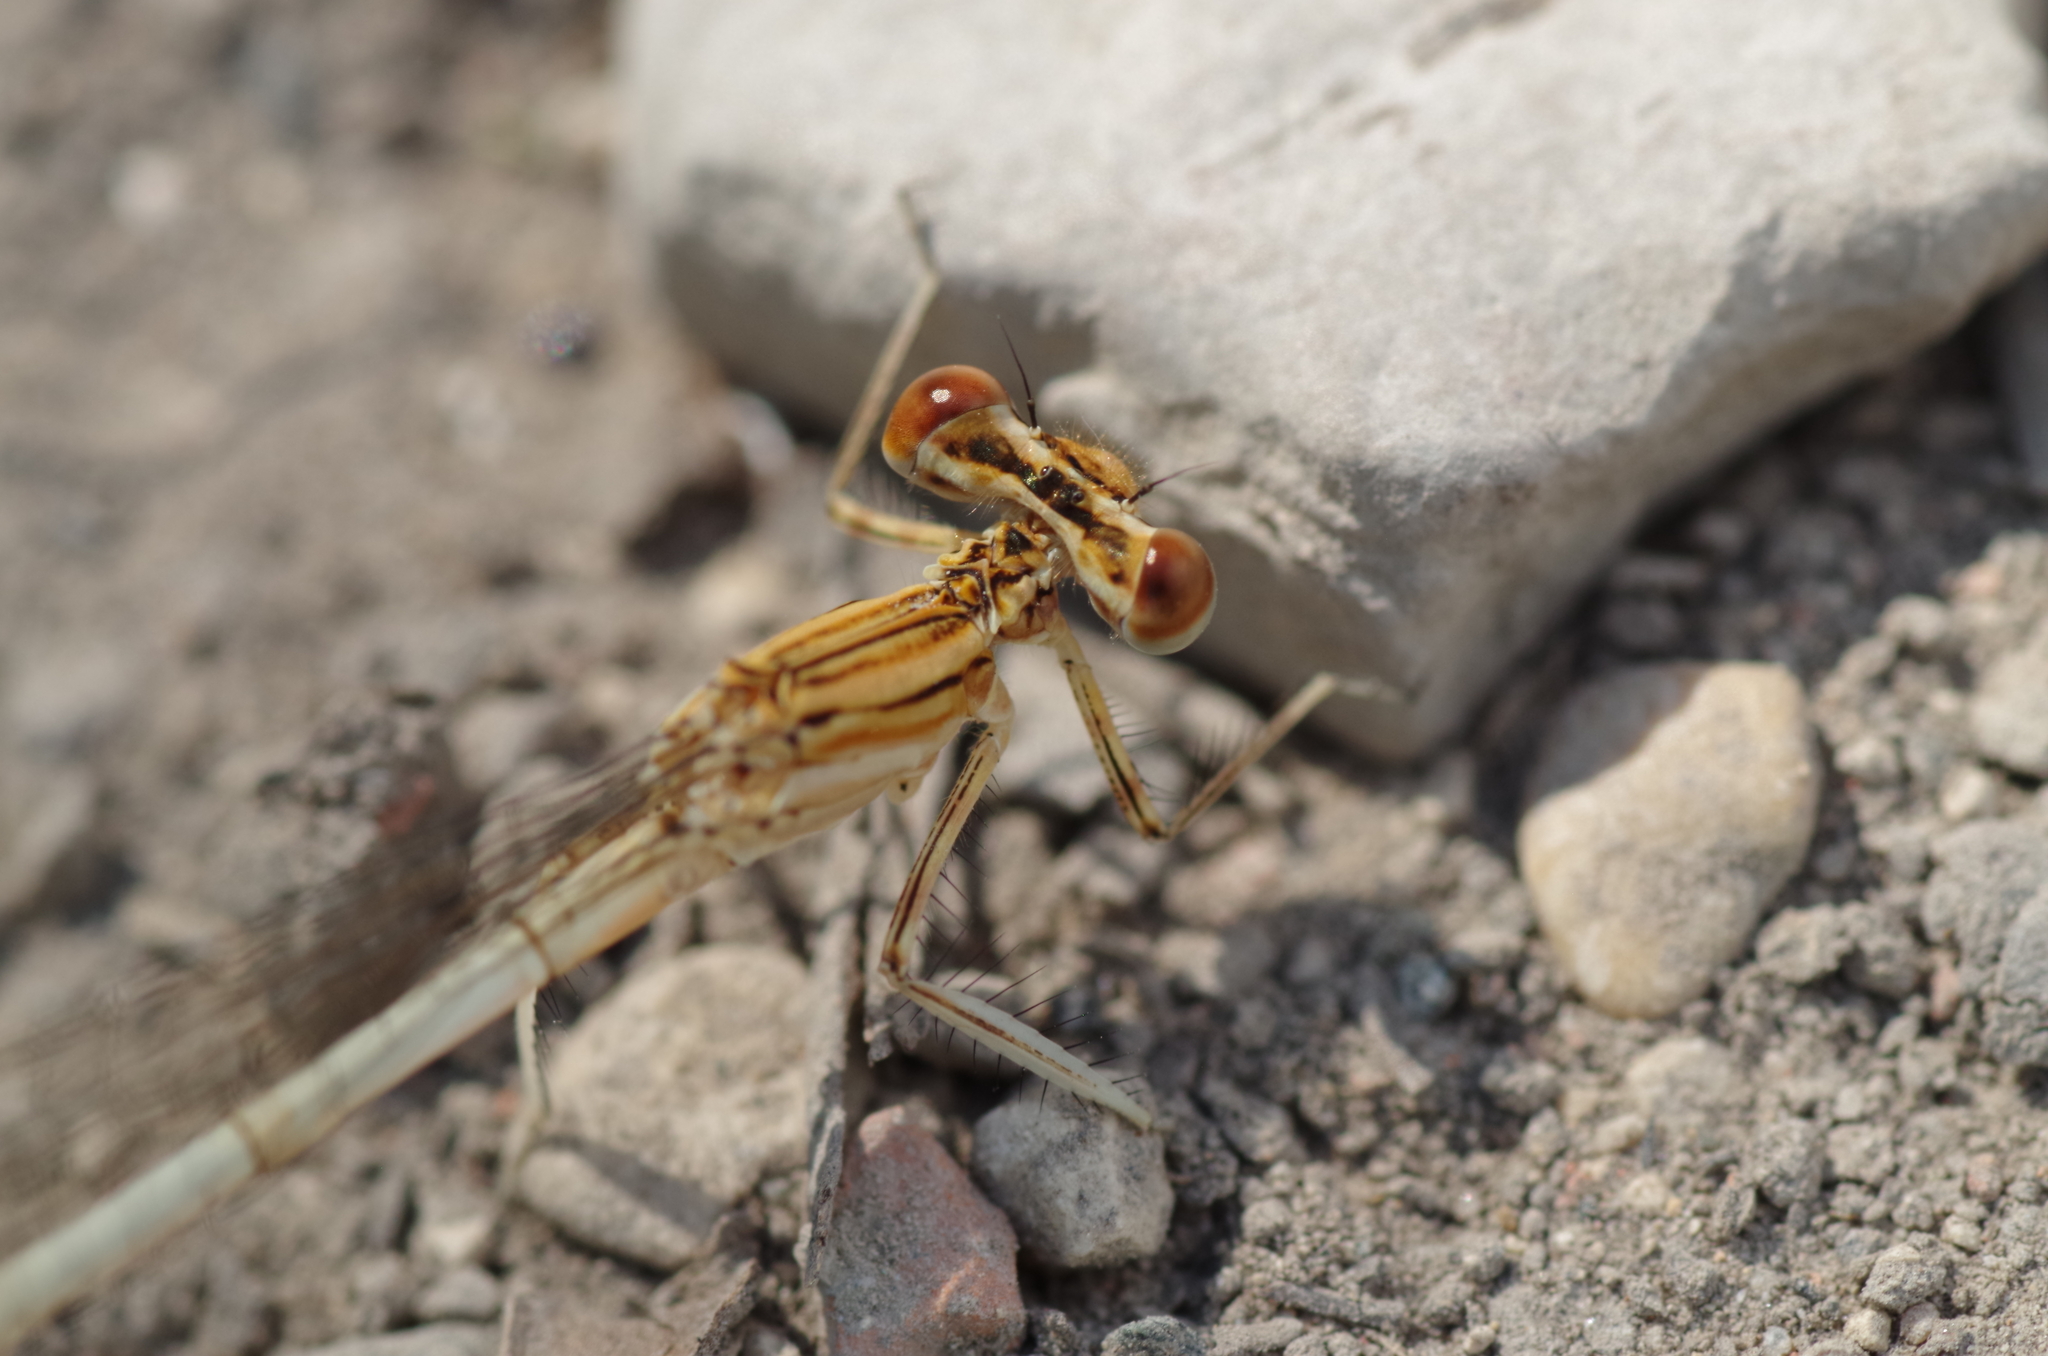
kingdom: Animalia
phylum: Arthropoda
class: Insecta
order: Odonata
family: Platycnemididae
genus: Platycnemis
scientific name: Platycnemis pennipes
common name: White-legged damselfly
